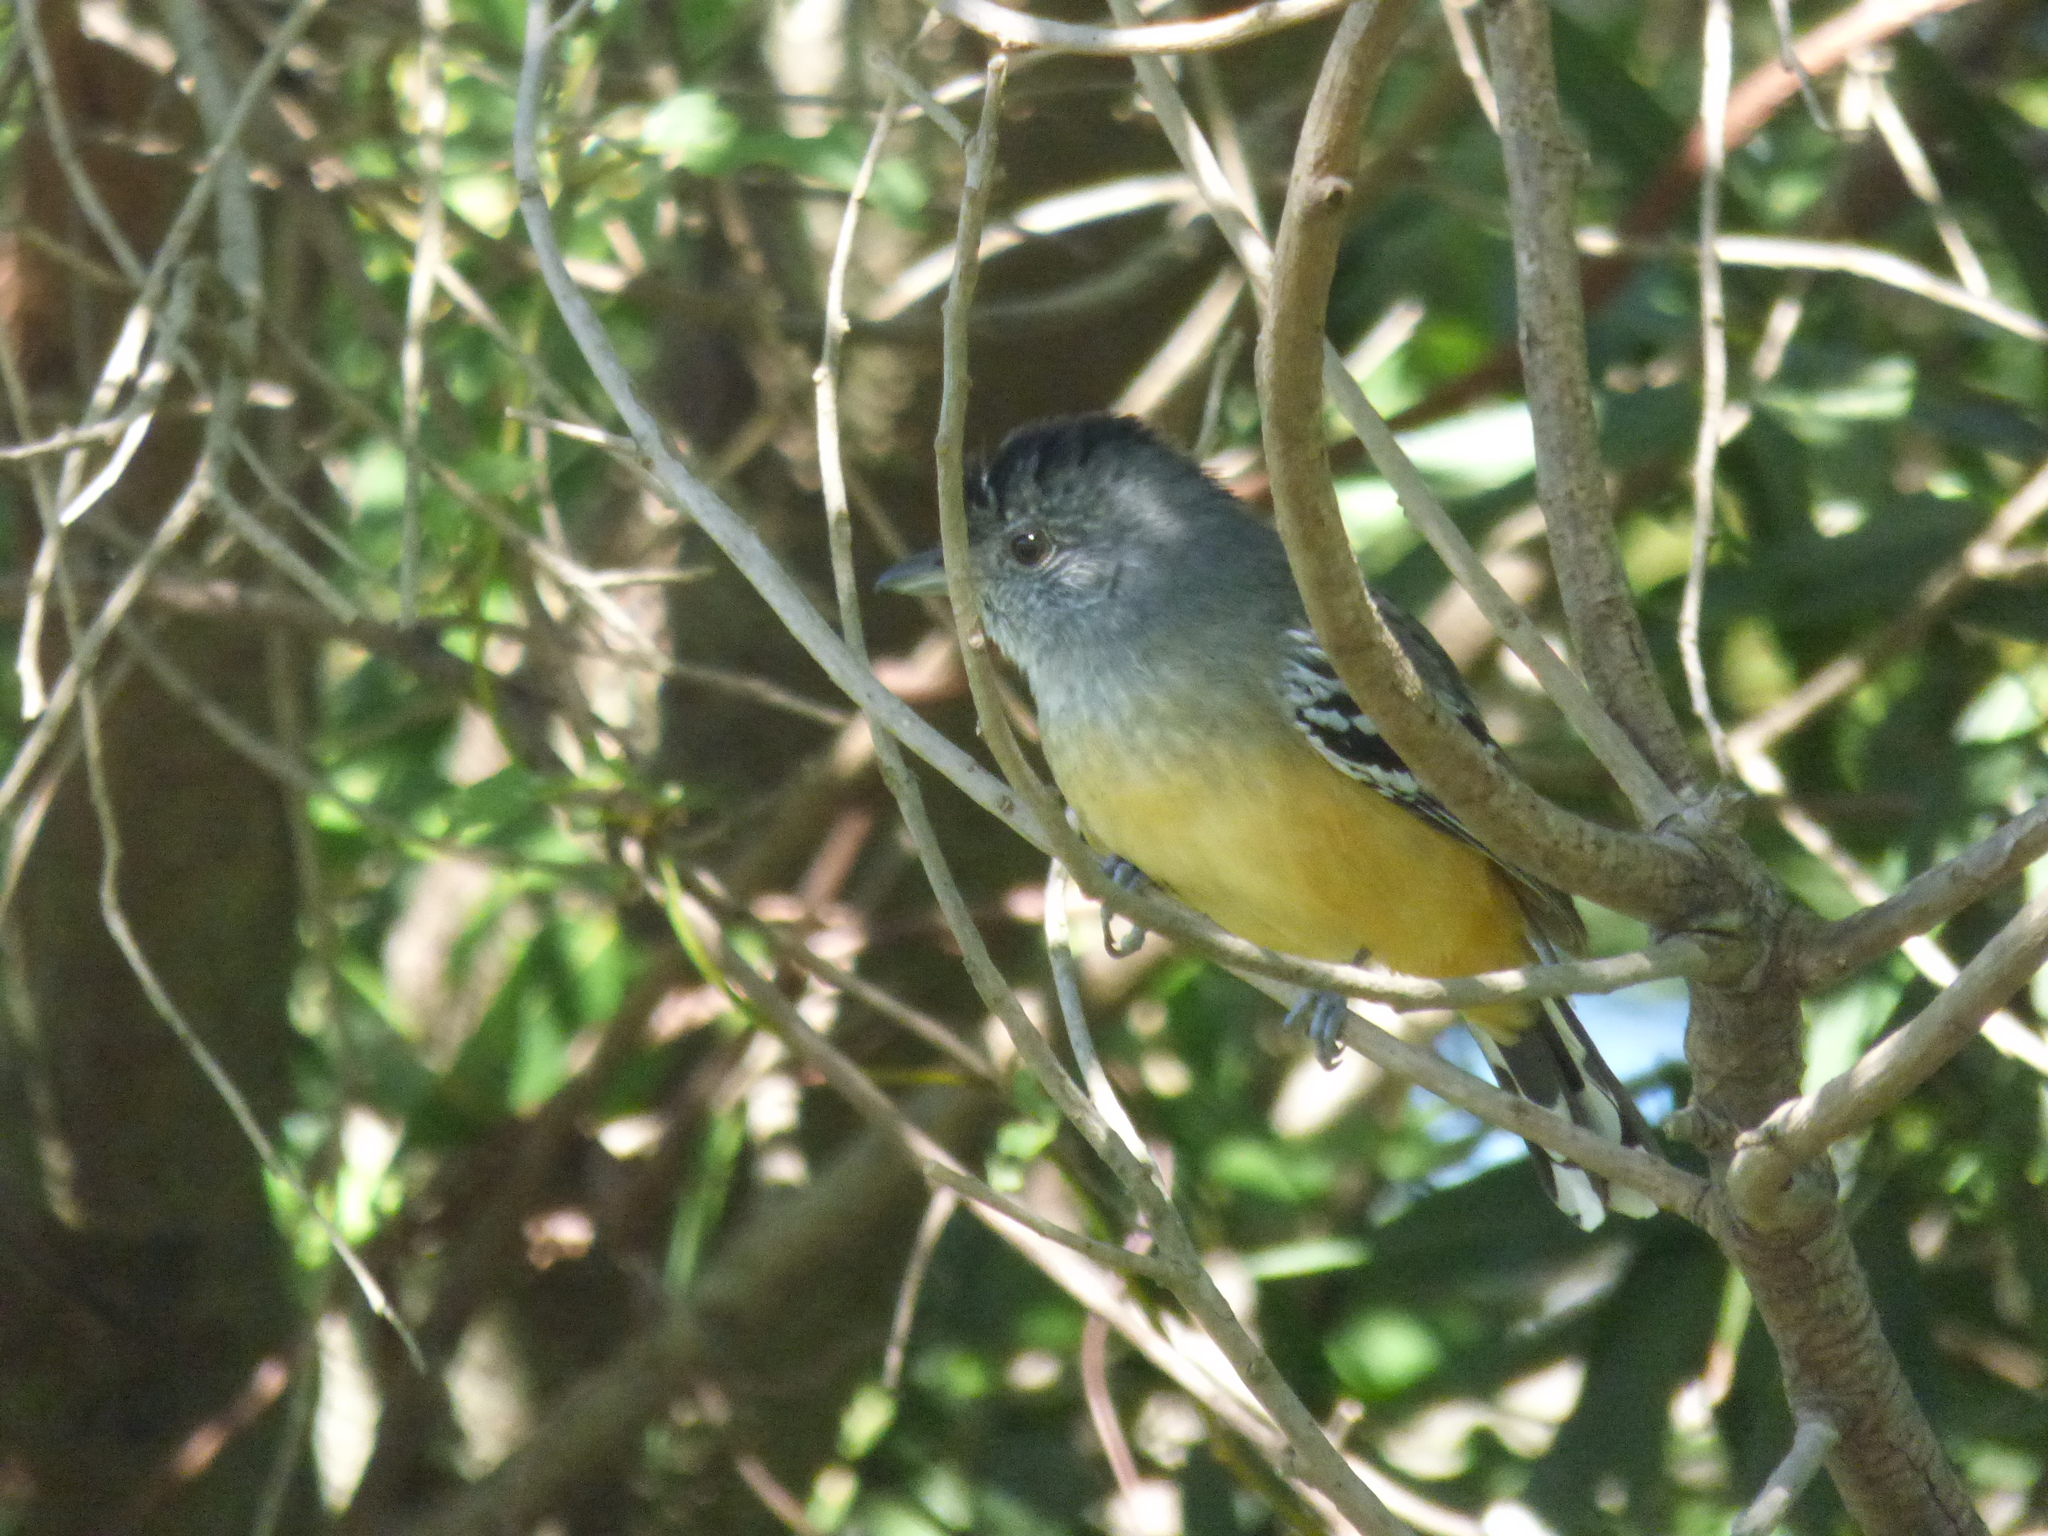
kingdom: Animalia
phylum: Chordata
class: Aves
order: Passeriformes
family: Thamnophilidae
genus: Thamnophilus
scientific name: Thamnophilus caerulescens
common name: Variable antshrike
